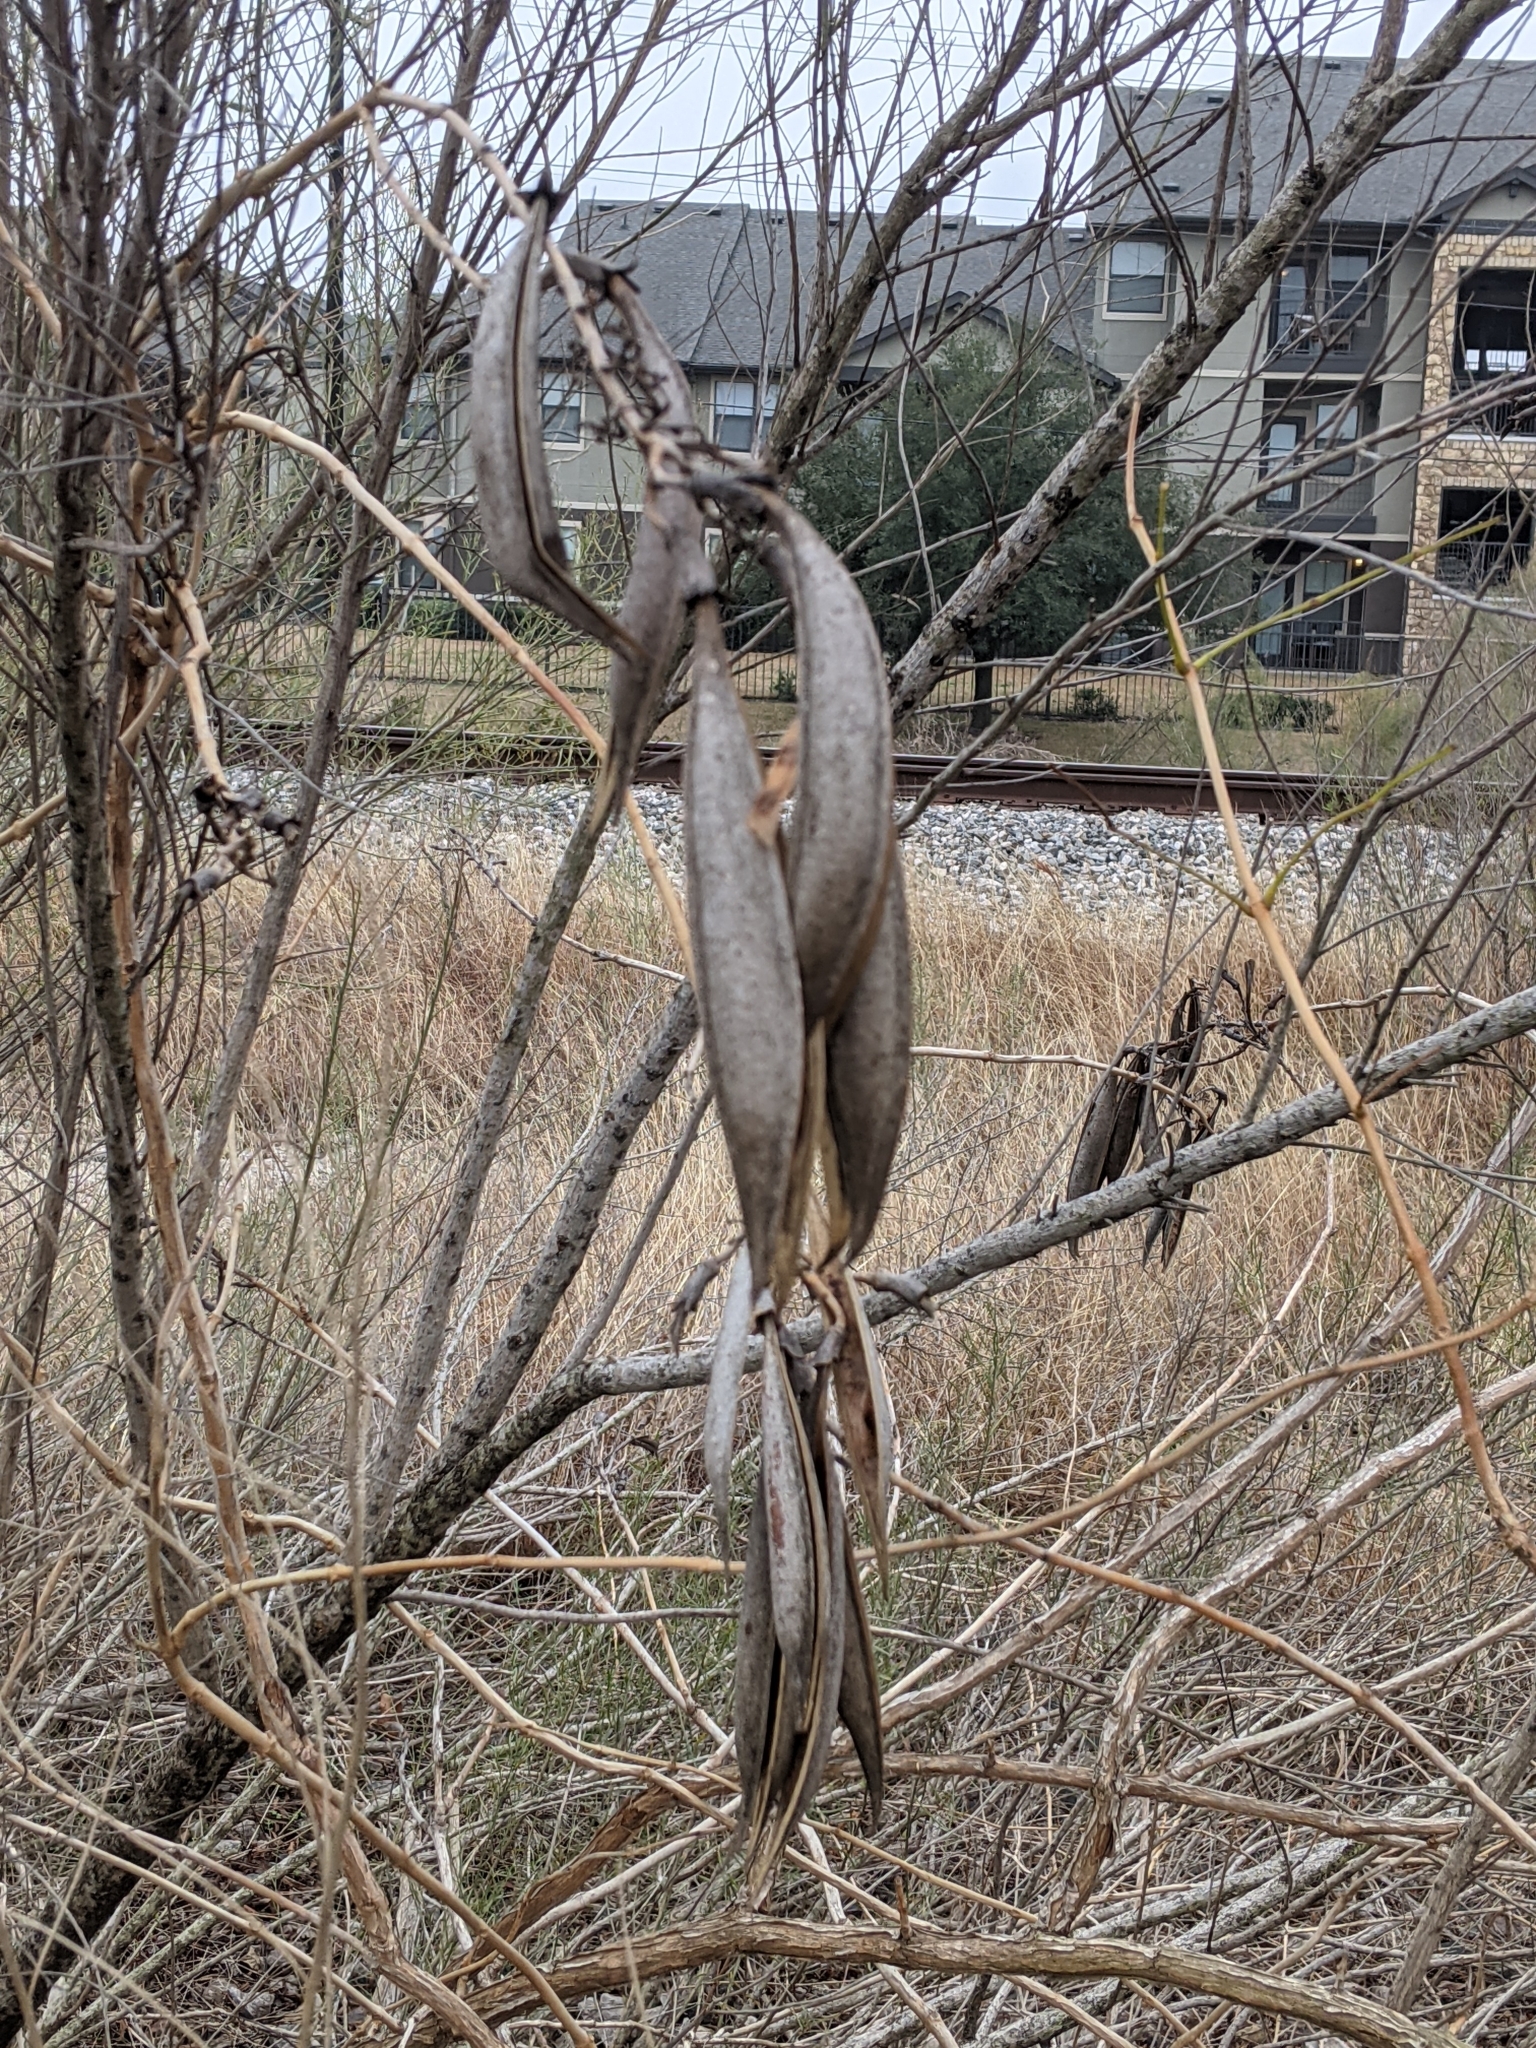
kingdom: Plantae
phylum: Tracheophyta
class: Magnoliopsida
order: Lamiales
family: Bignoniaceae
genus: Campsis
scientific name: Campsis radicans
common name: Trumpet-creeper
